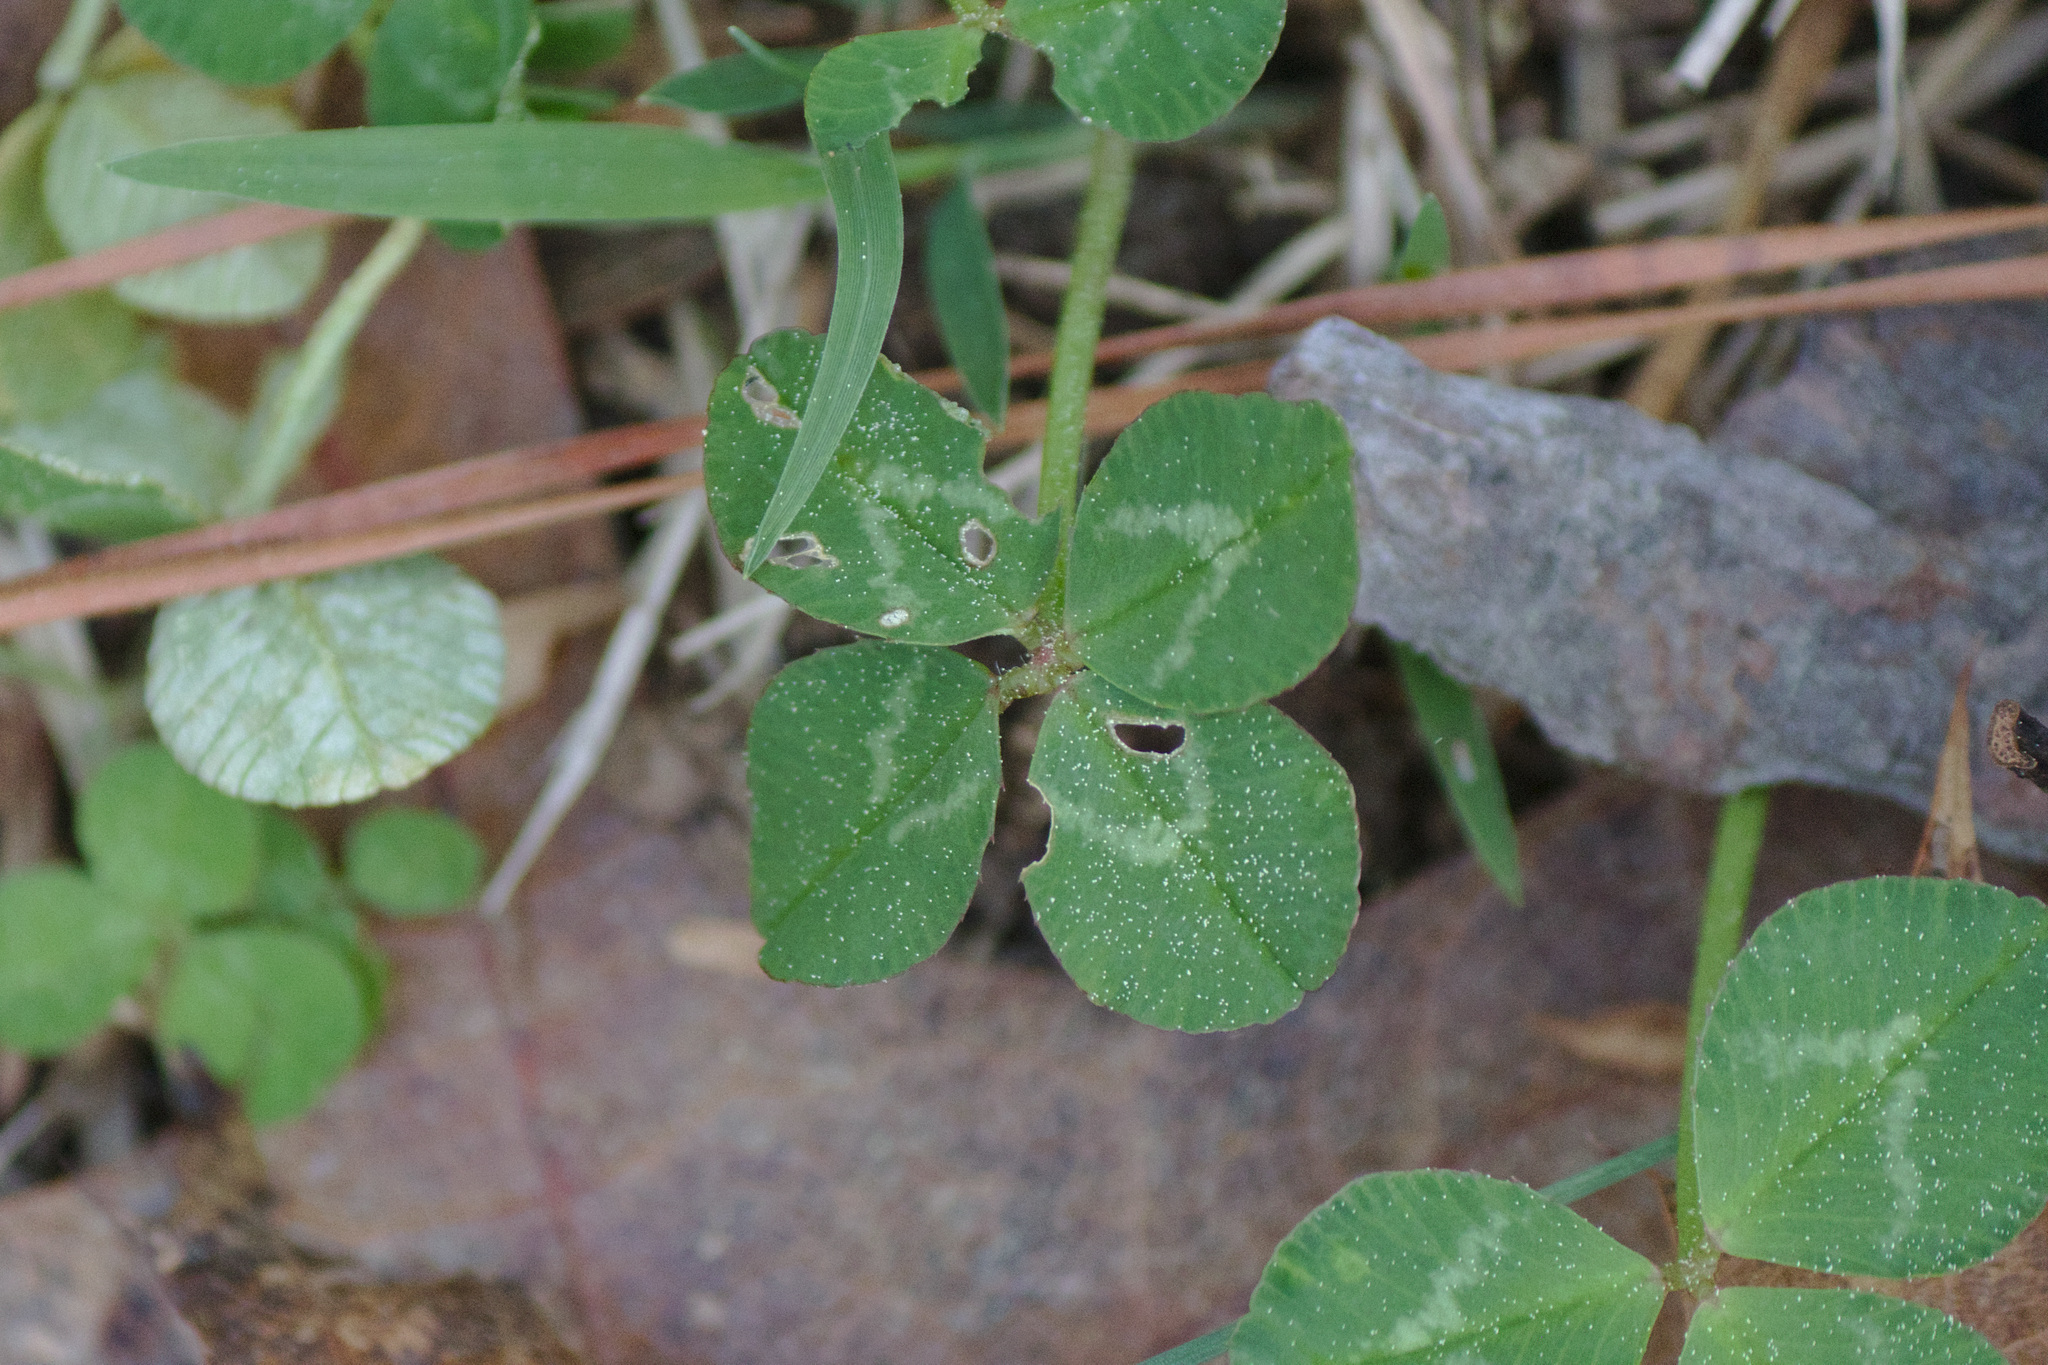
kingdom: Plantae
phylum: Tracheophyta
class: Magnoliopsida
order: Fabales
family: Fabaceae
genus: Trifolium
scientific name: Trifolium repens
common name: White clover
